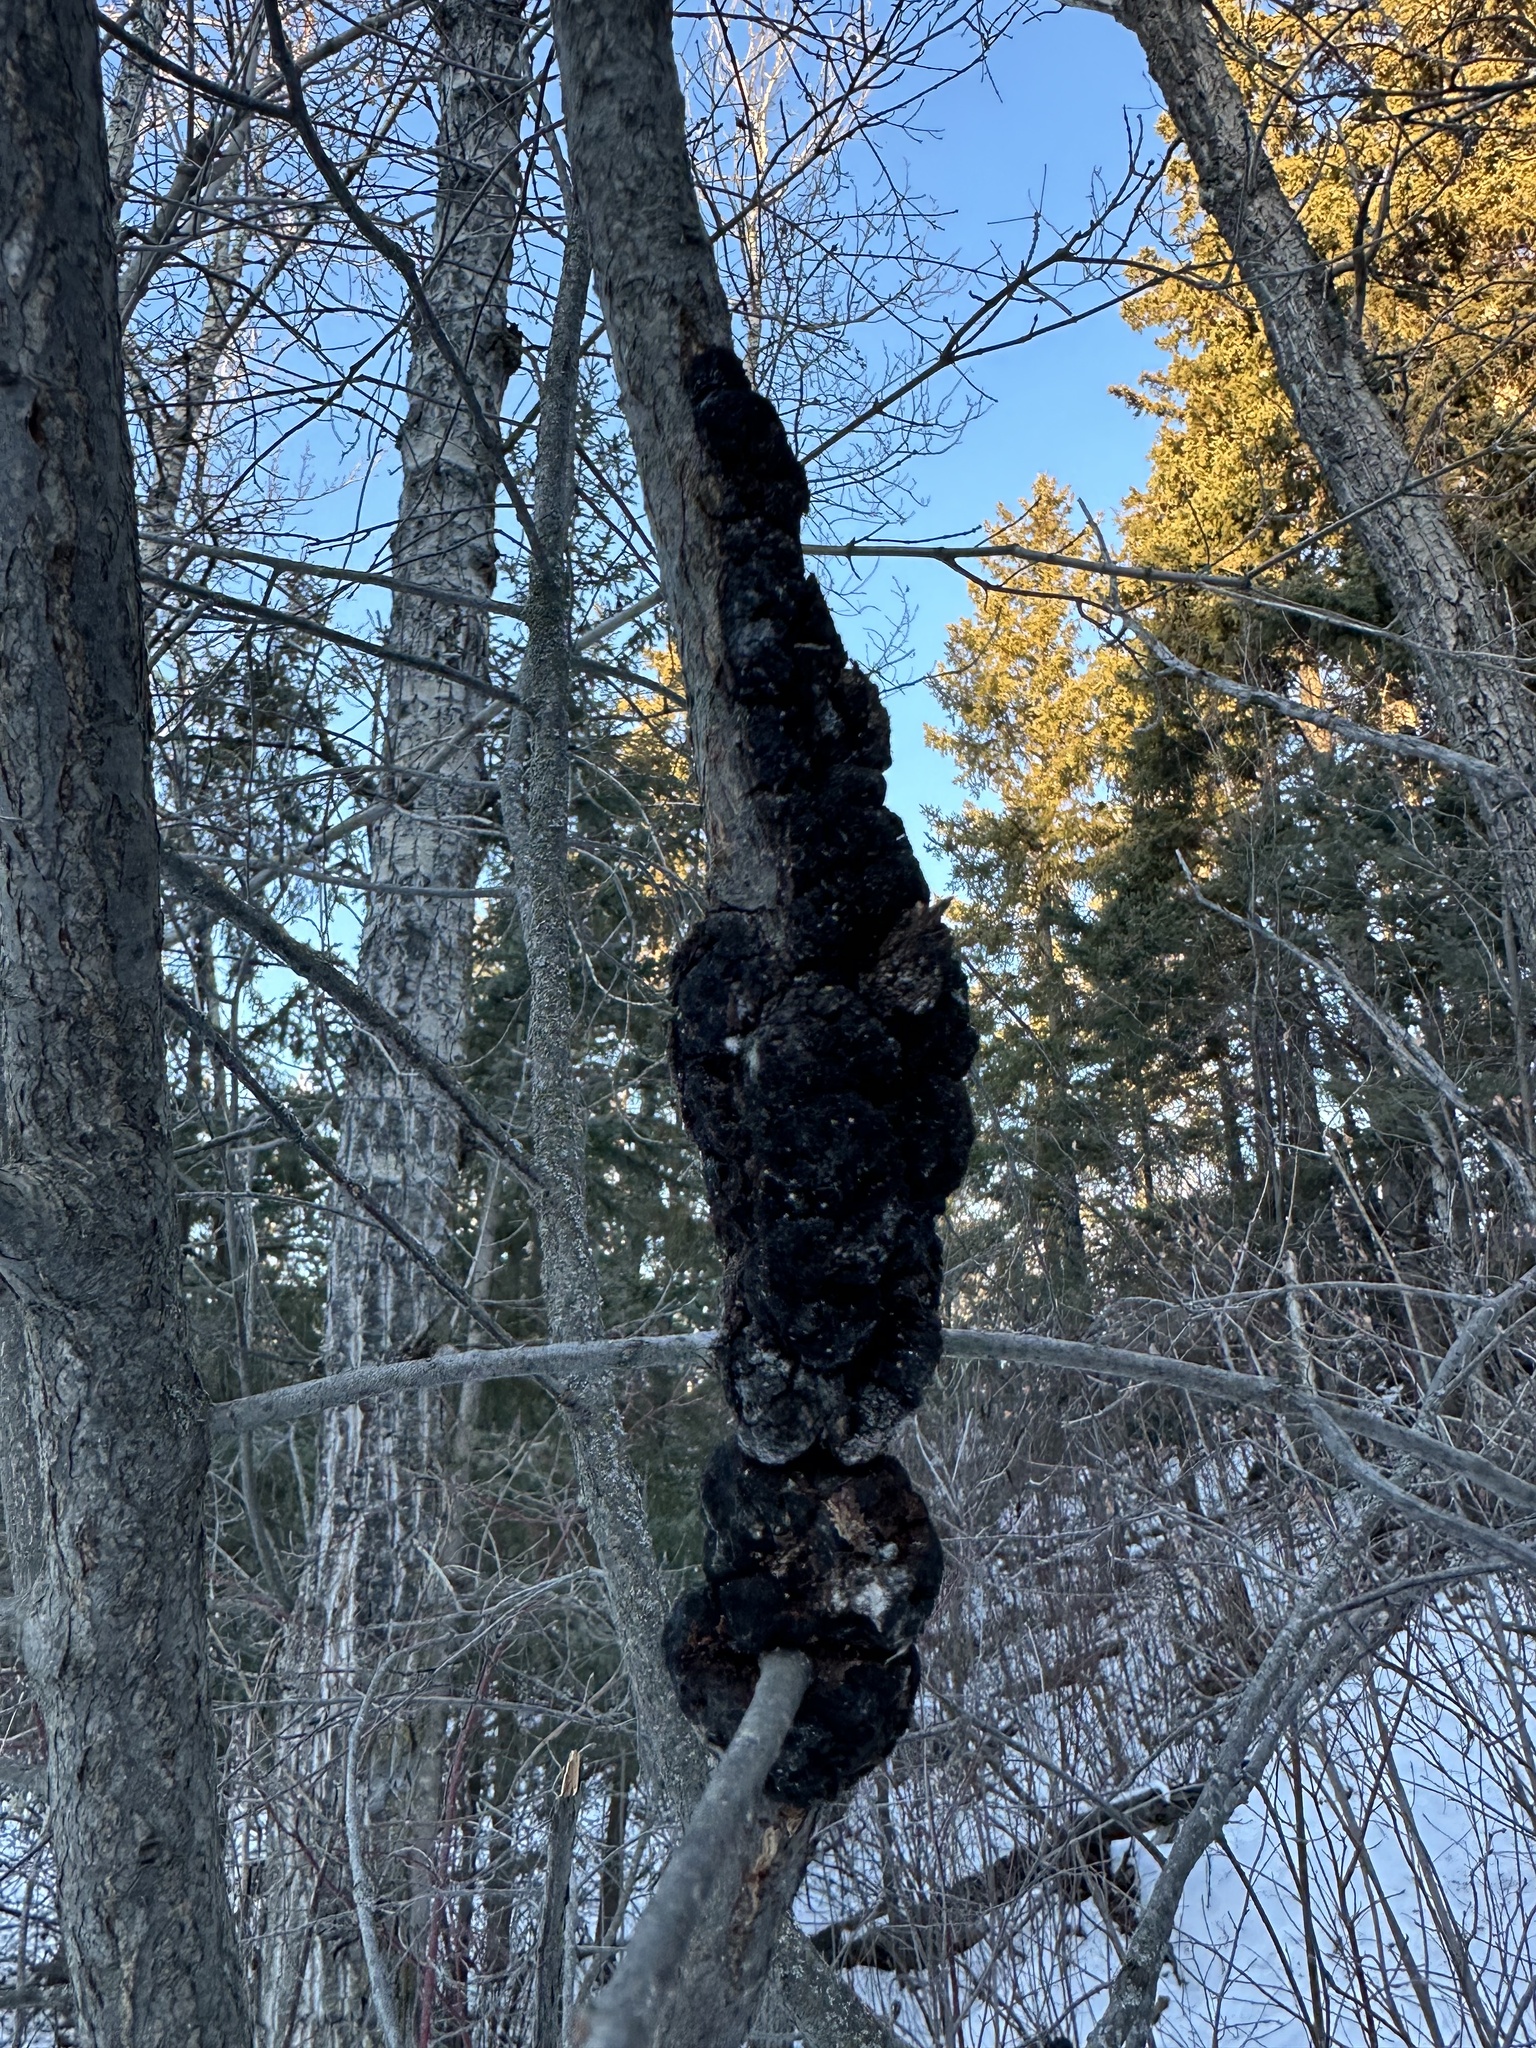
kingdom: Fungi
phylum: Ascomycota
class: Dothideomycetes
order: Venturiales
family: Venturiaceae
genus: Apiosporina
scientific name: Apiosporina morbosa
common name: Black knot
